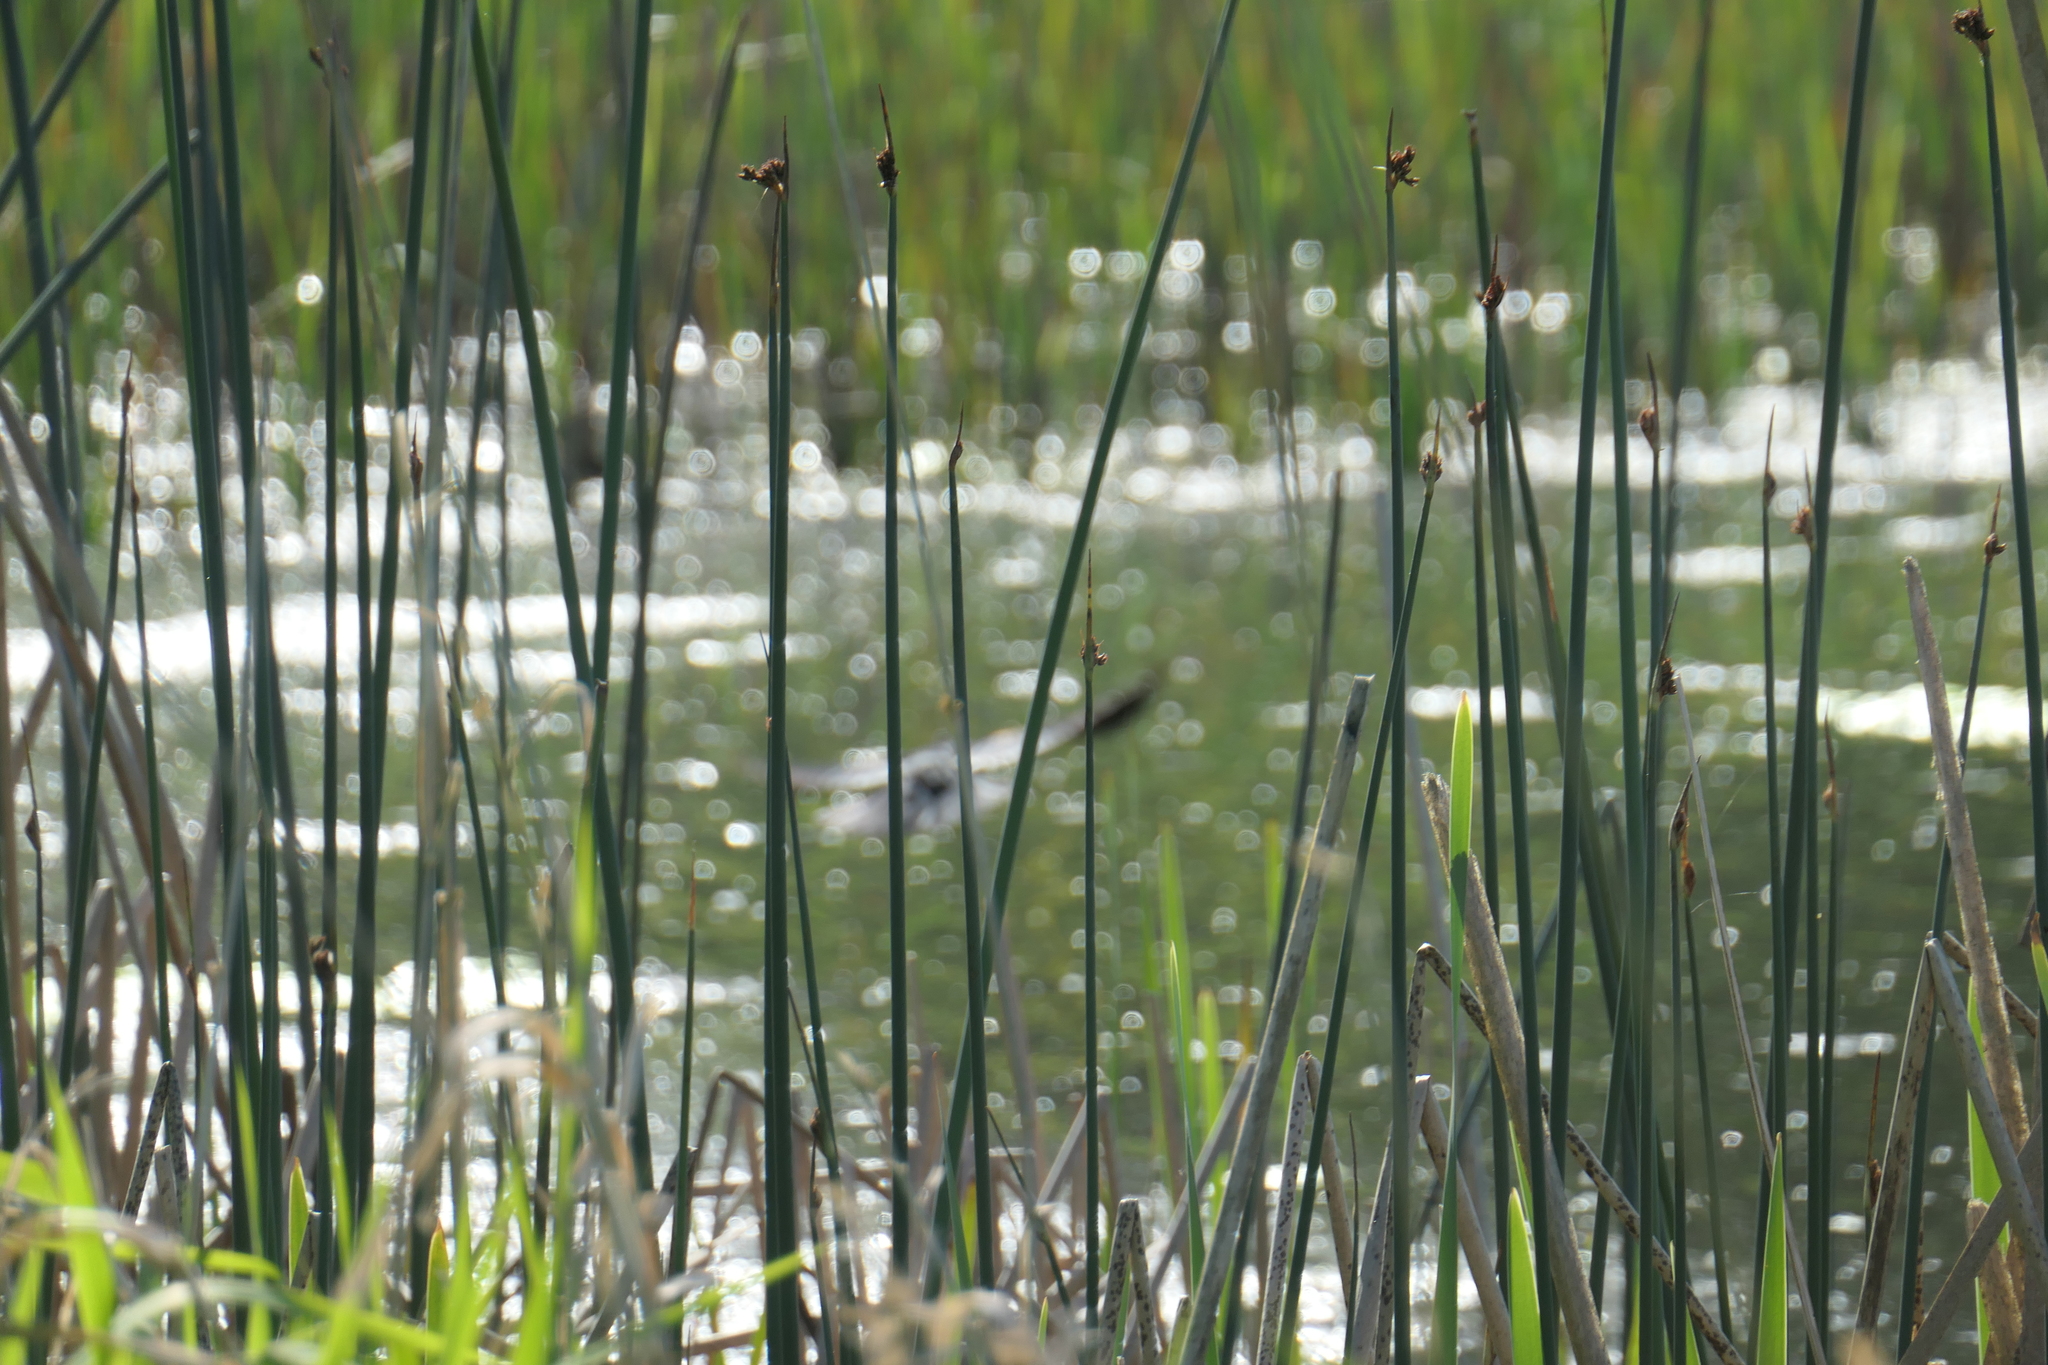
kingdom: Plantae
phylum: Tracheophyta
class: Liliopsida
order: Poales
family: Cyperaceae
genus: Schoenoplectus
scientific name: Schoenoplectus acutus
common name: Hardstem bulrush
